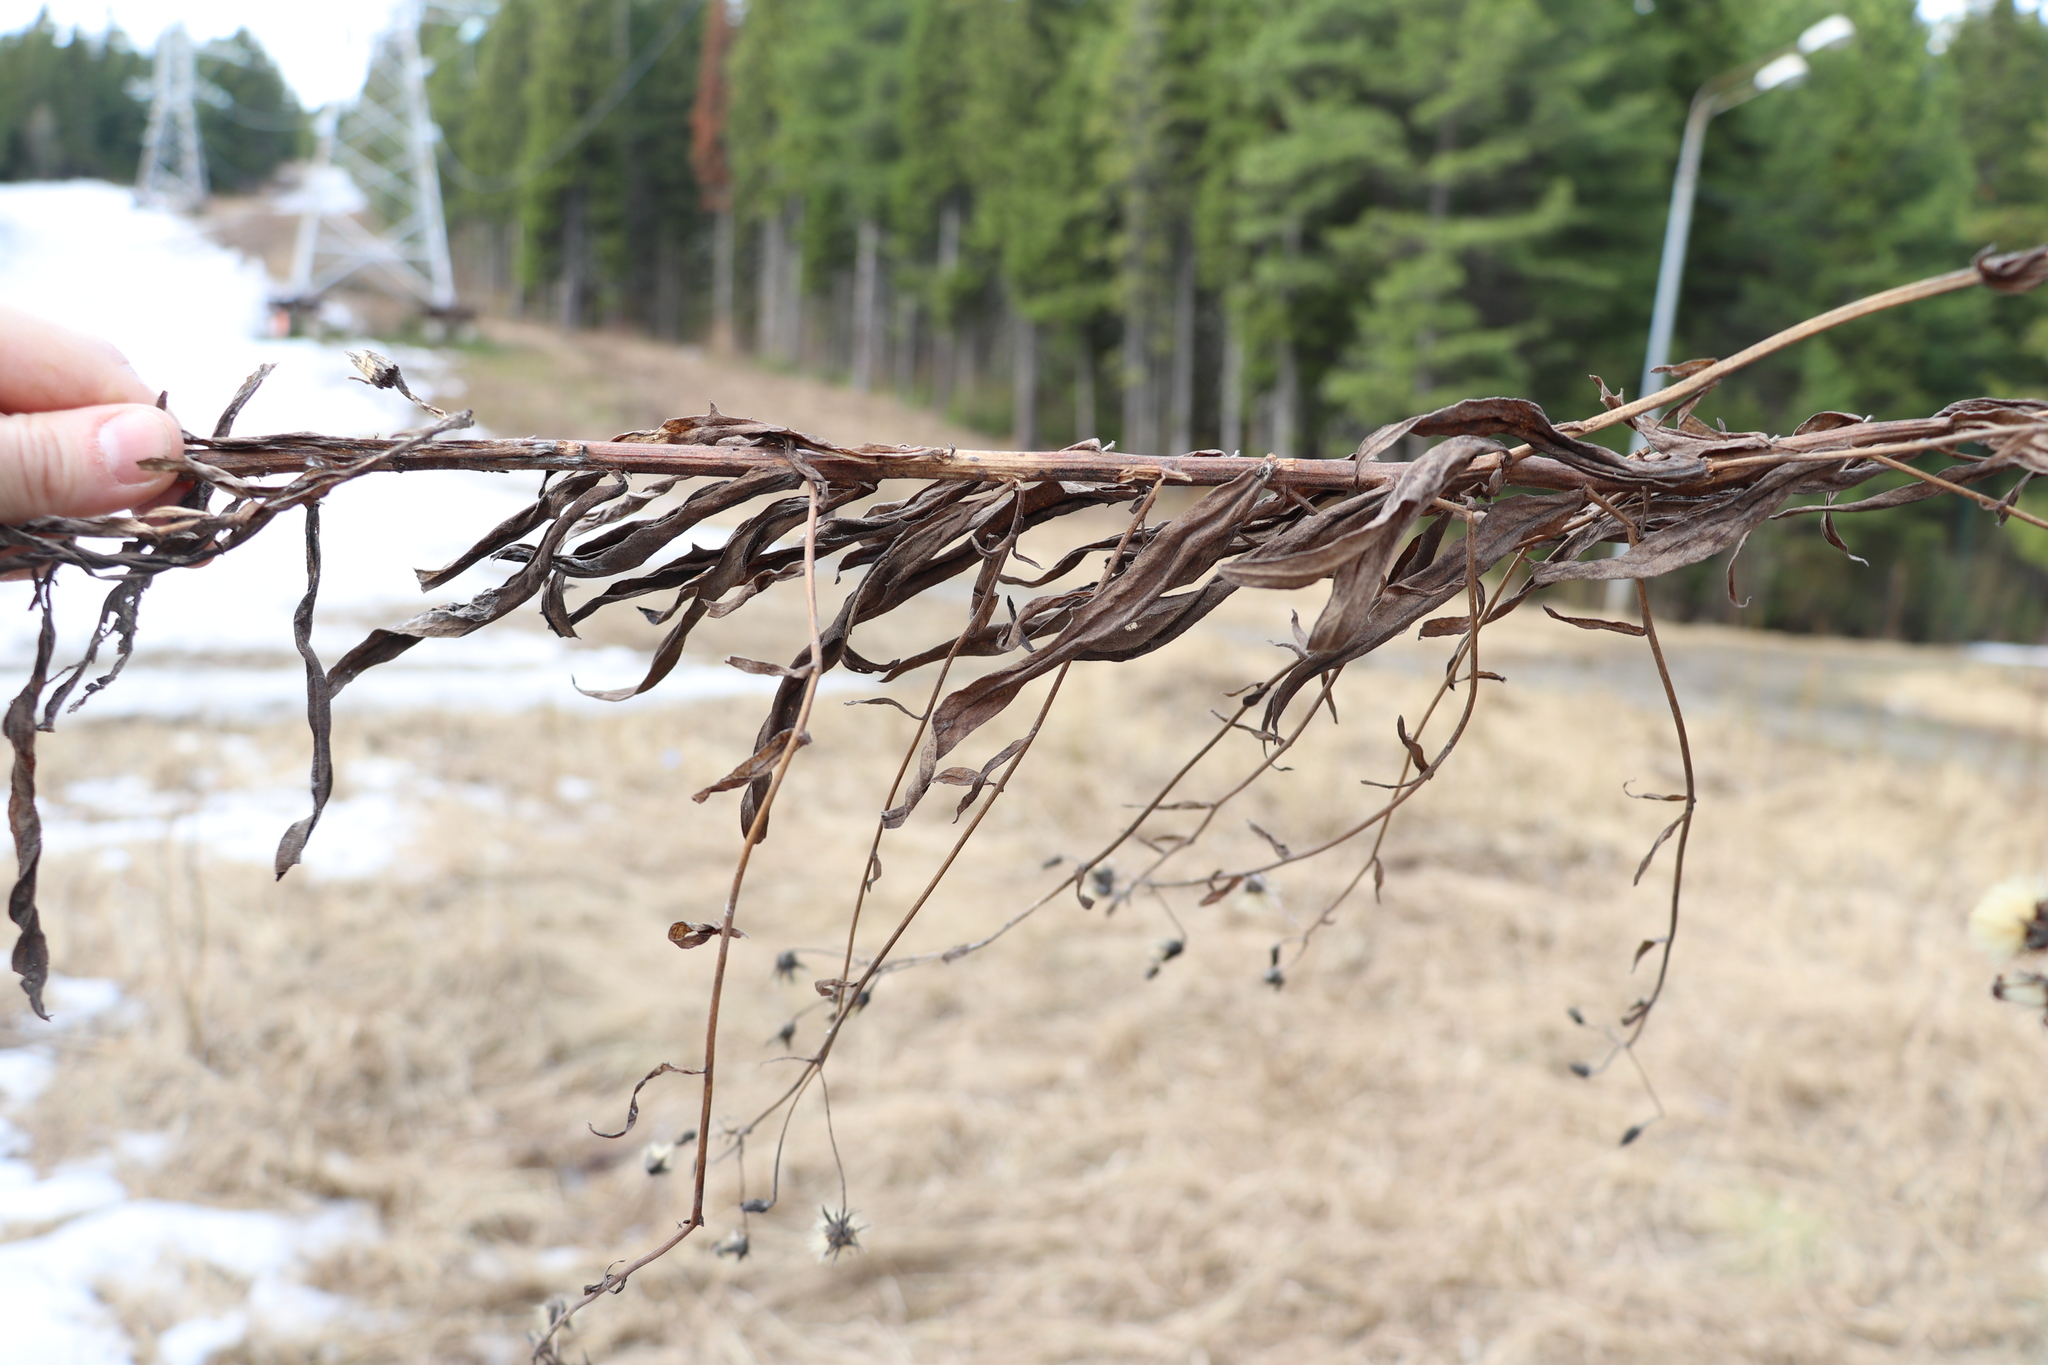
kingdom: Plantae
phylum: Tracheophyta
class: Magnoliopsida
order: Asterales
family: Asteraceae
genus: Lactuca
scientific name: Lactuca sibirica
